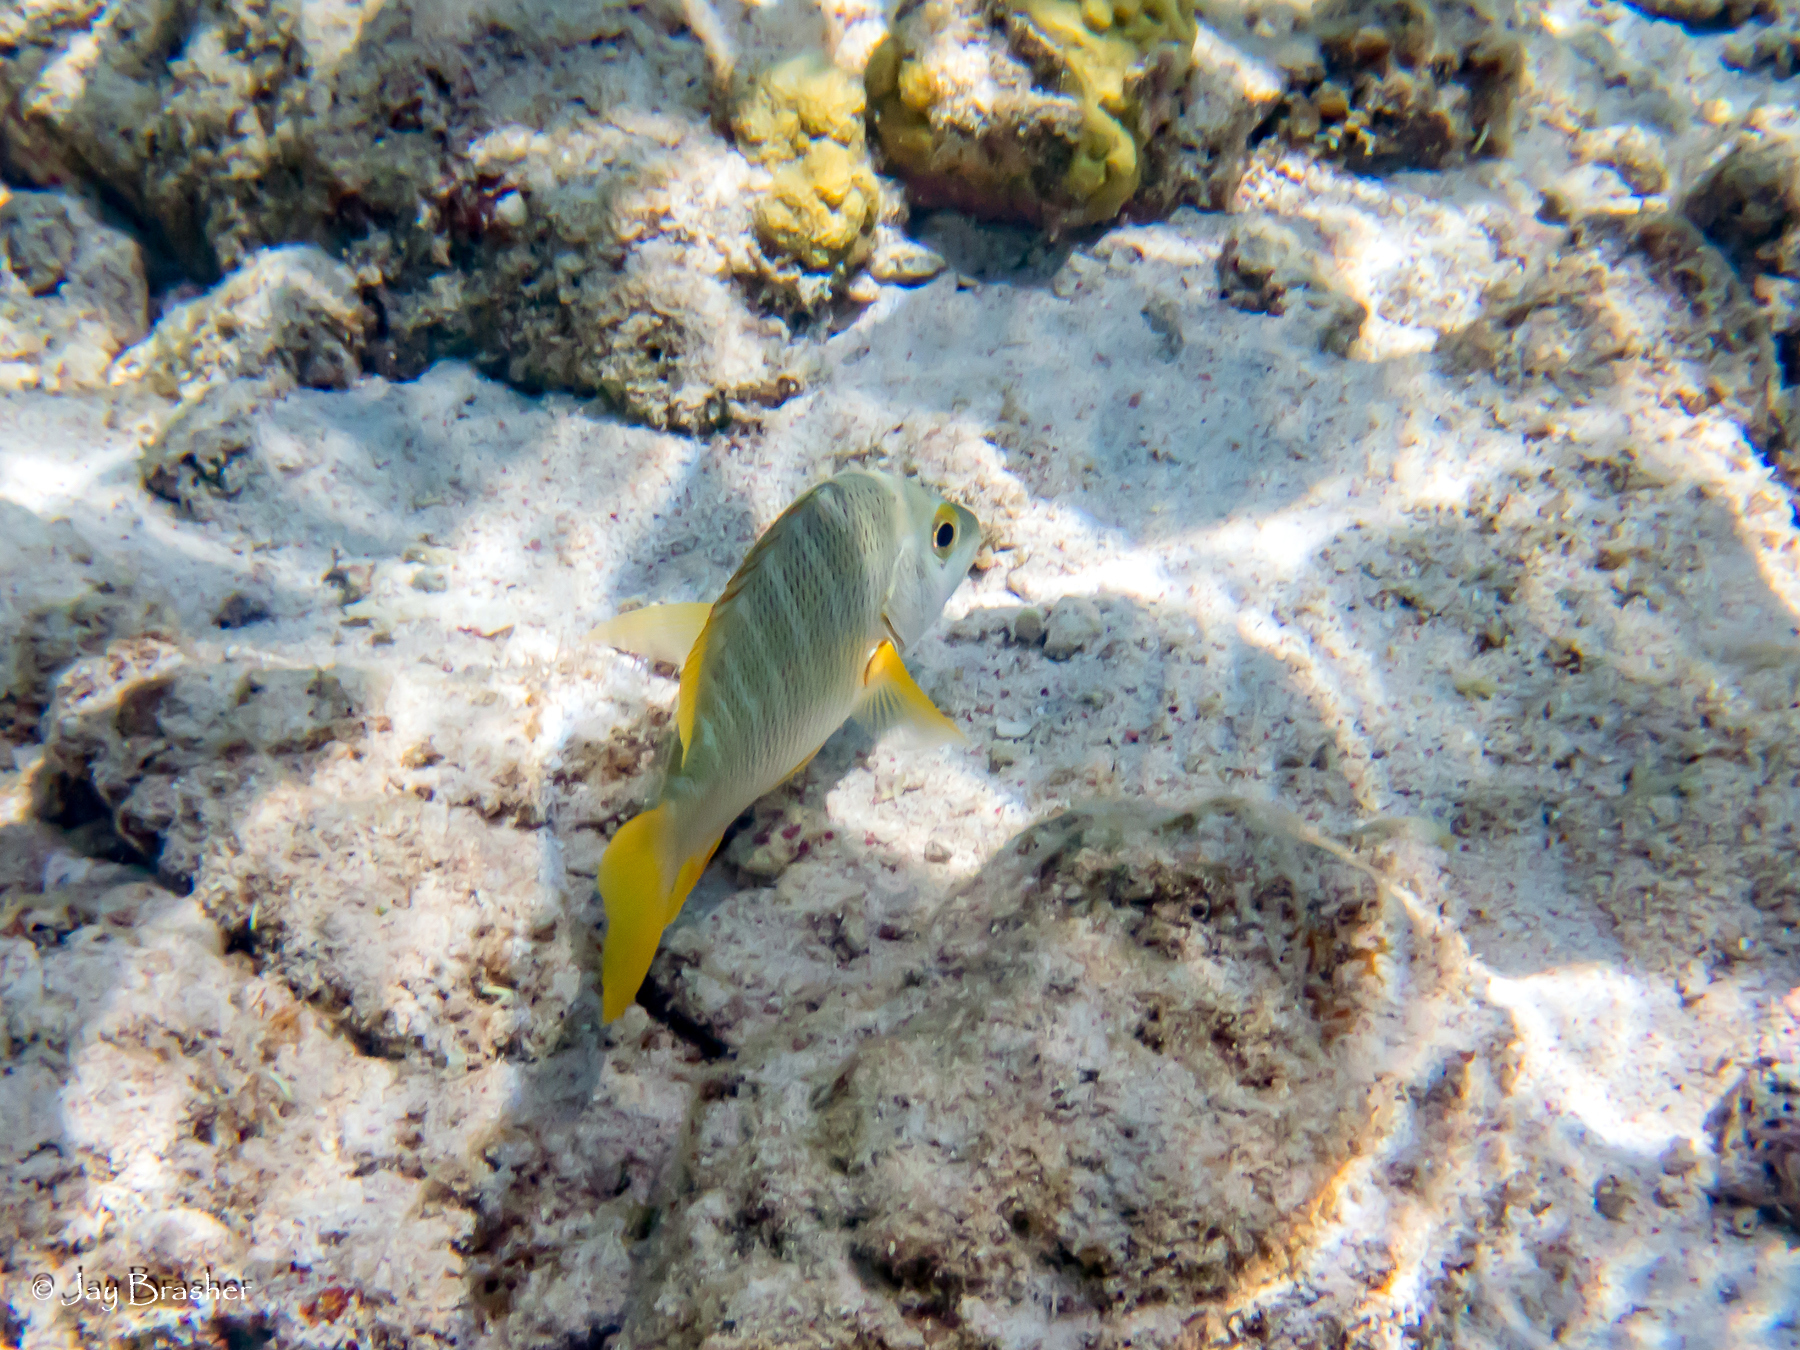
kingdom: Animalia
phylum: Chordata
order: Perciformes
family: Lutjanidae
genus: Lutjanus
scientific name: Lutjanus apodus
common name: Schoolmaster
